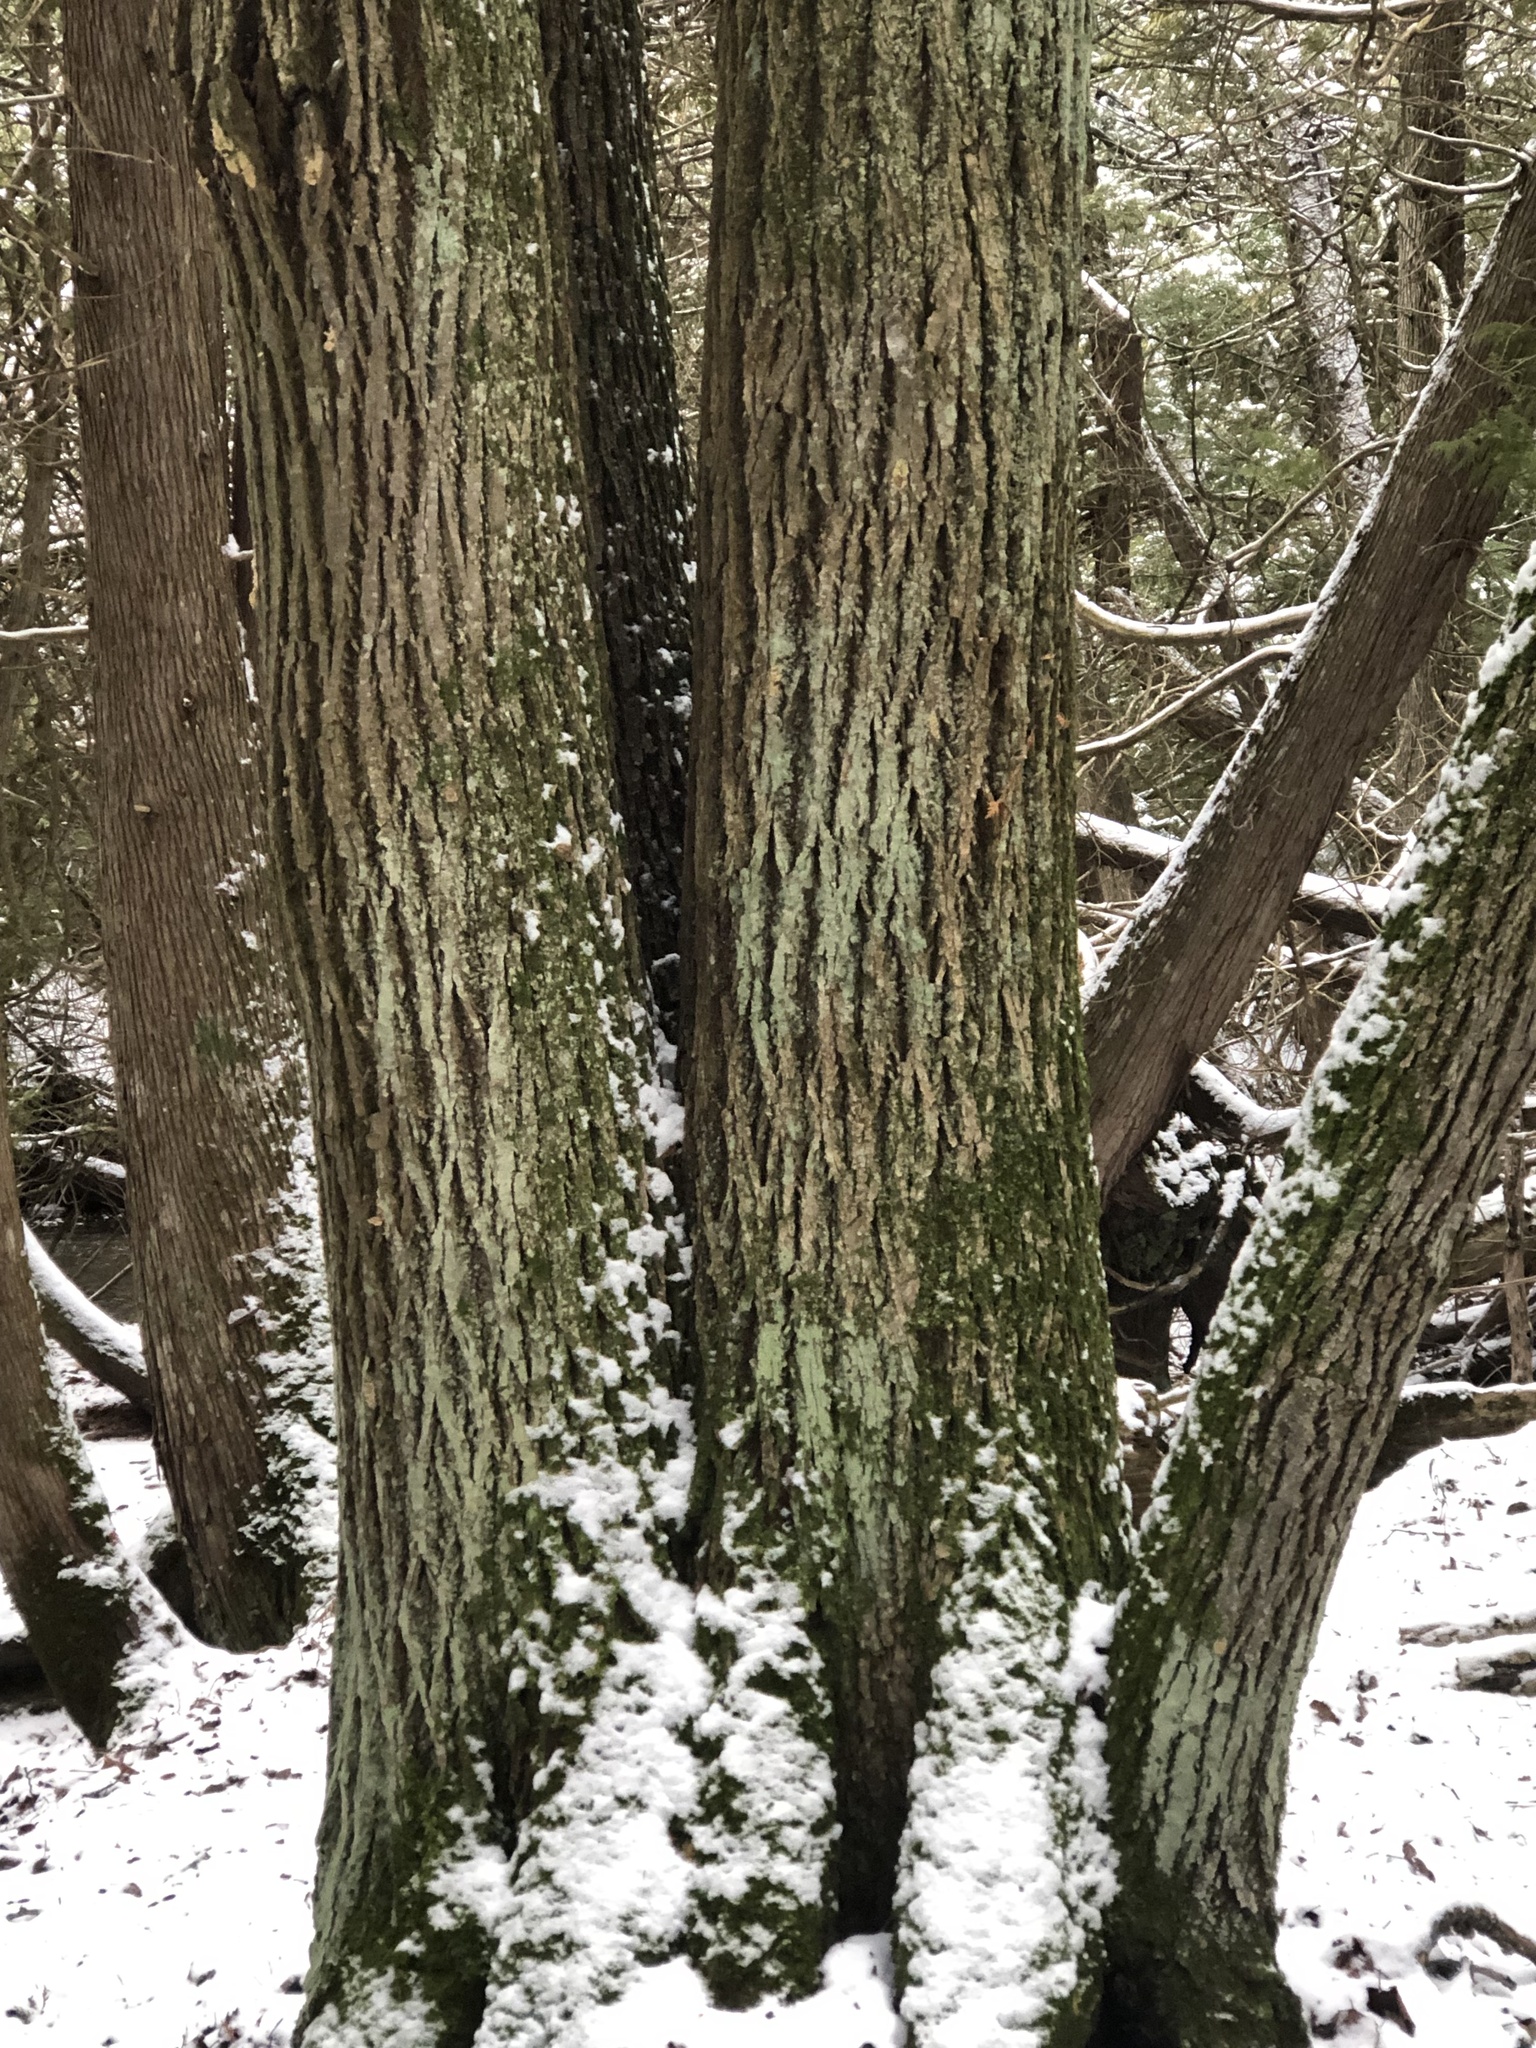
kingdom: Plantae
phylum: Tracheophyta
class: Magnoliopsida
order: Malvales
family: Malvaceae
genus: Tilia
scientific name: Tilia americana
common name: Basswood
